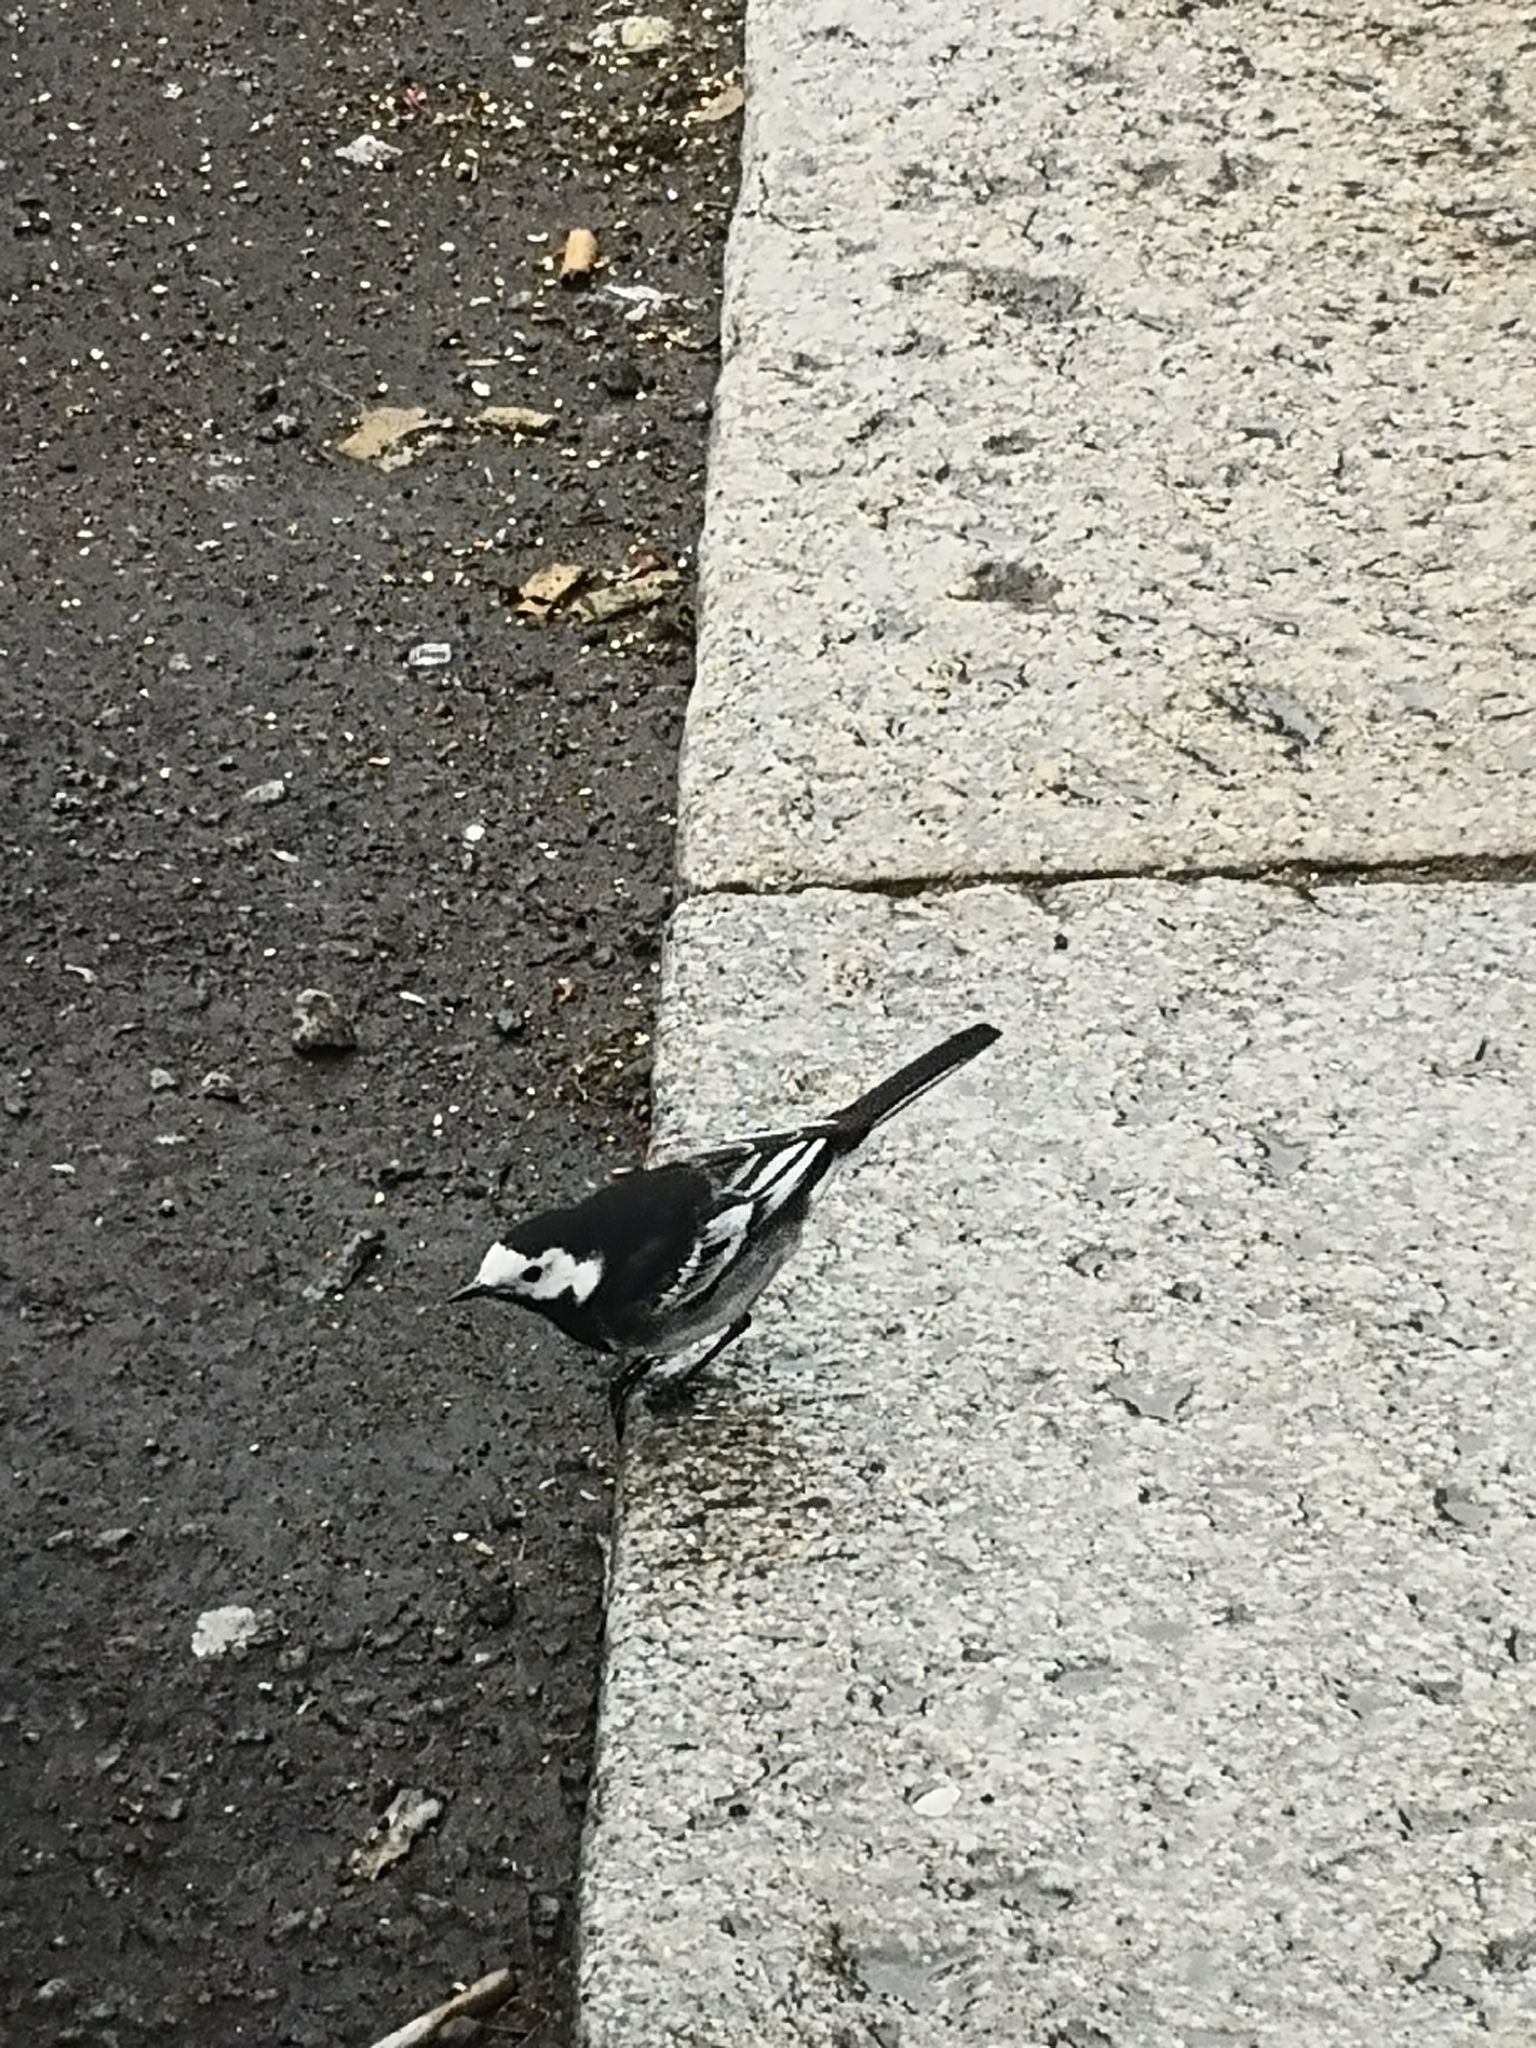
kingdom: Animalia
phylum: Chordata
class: Aves
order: Passeriformes
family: Motacillidae
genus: Motacilla
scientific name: Motacilla alba
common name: White wagtail
